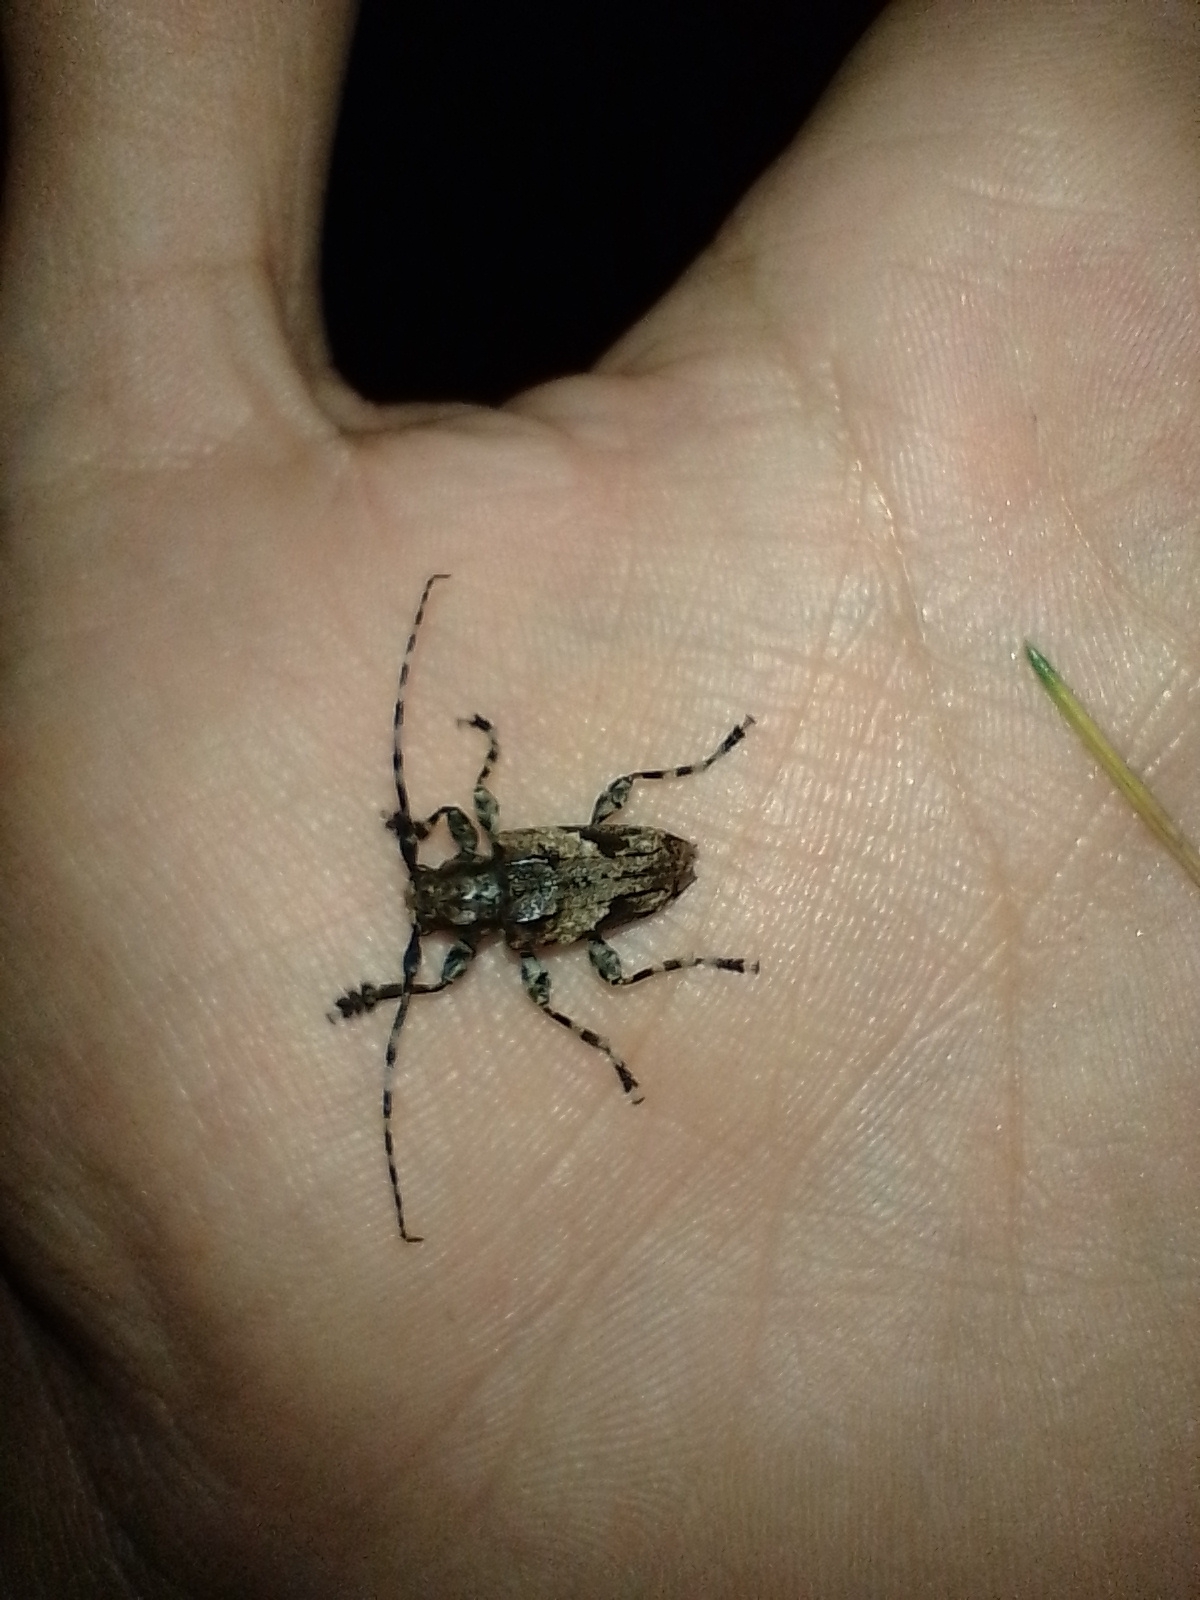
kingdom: Animalia
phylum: Arthropoda
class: Insecta
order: Coleoptera
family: Cerambycidae
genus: Psapharochrus
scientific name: Psapharochrus jaspideus
